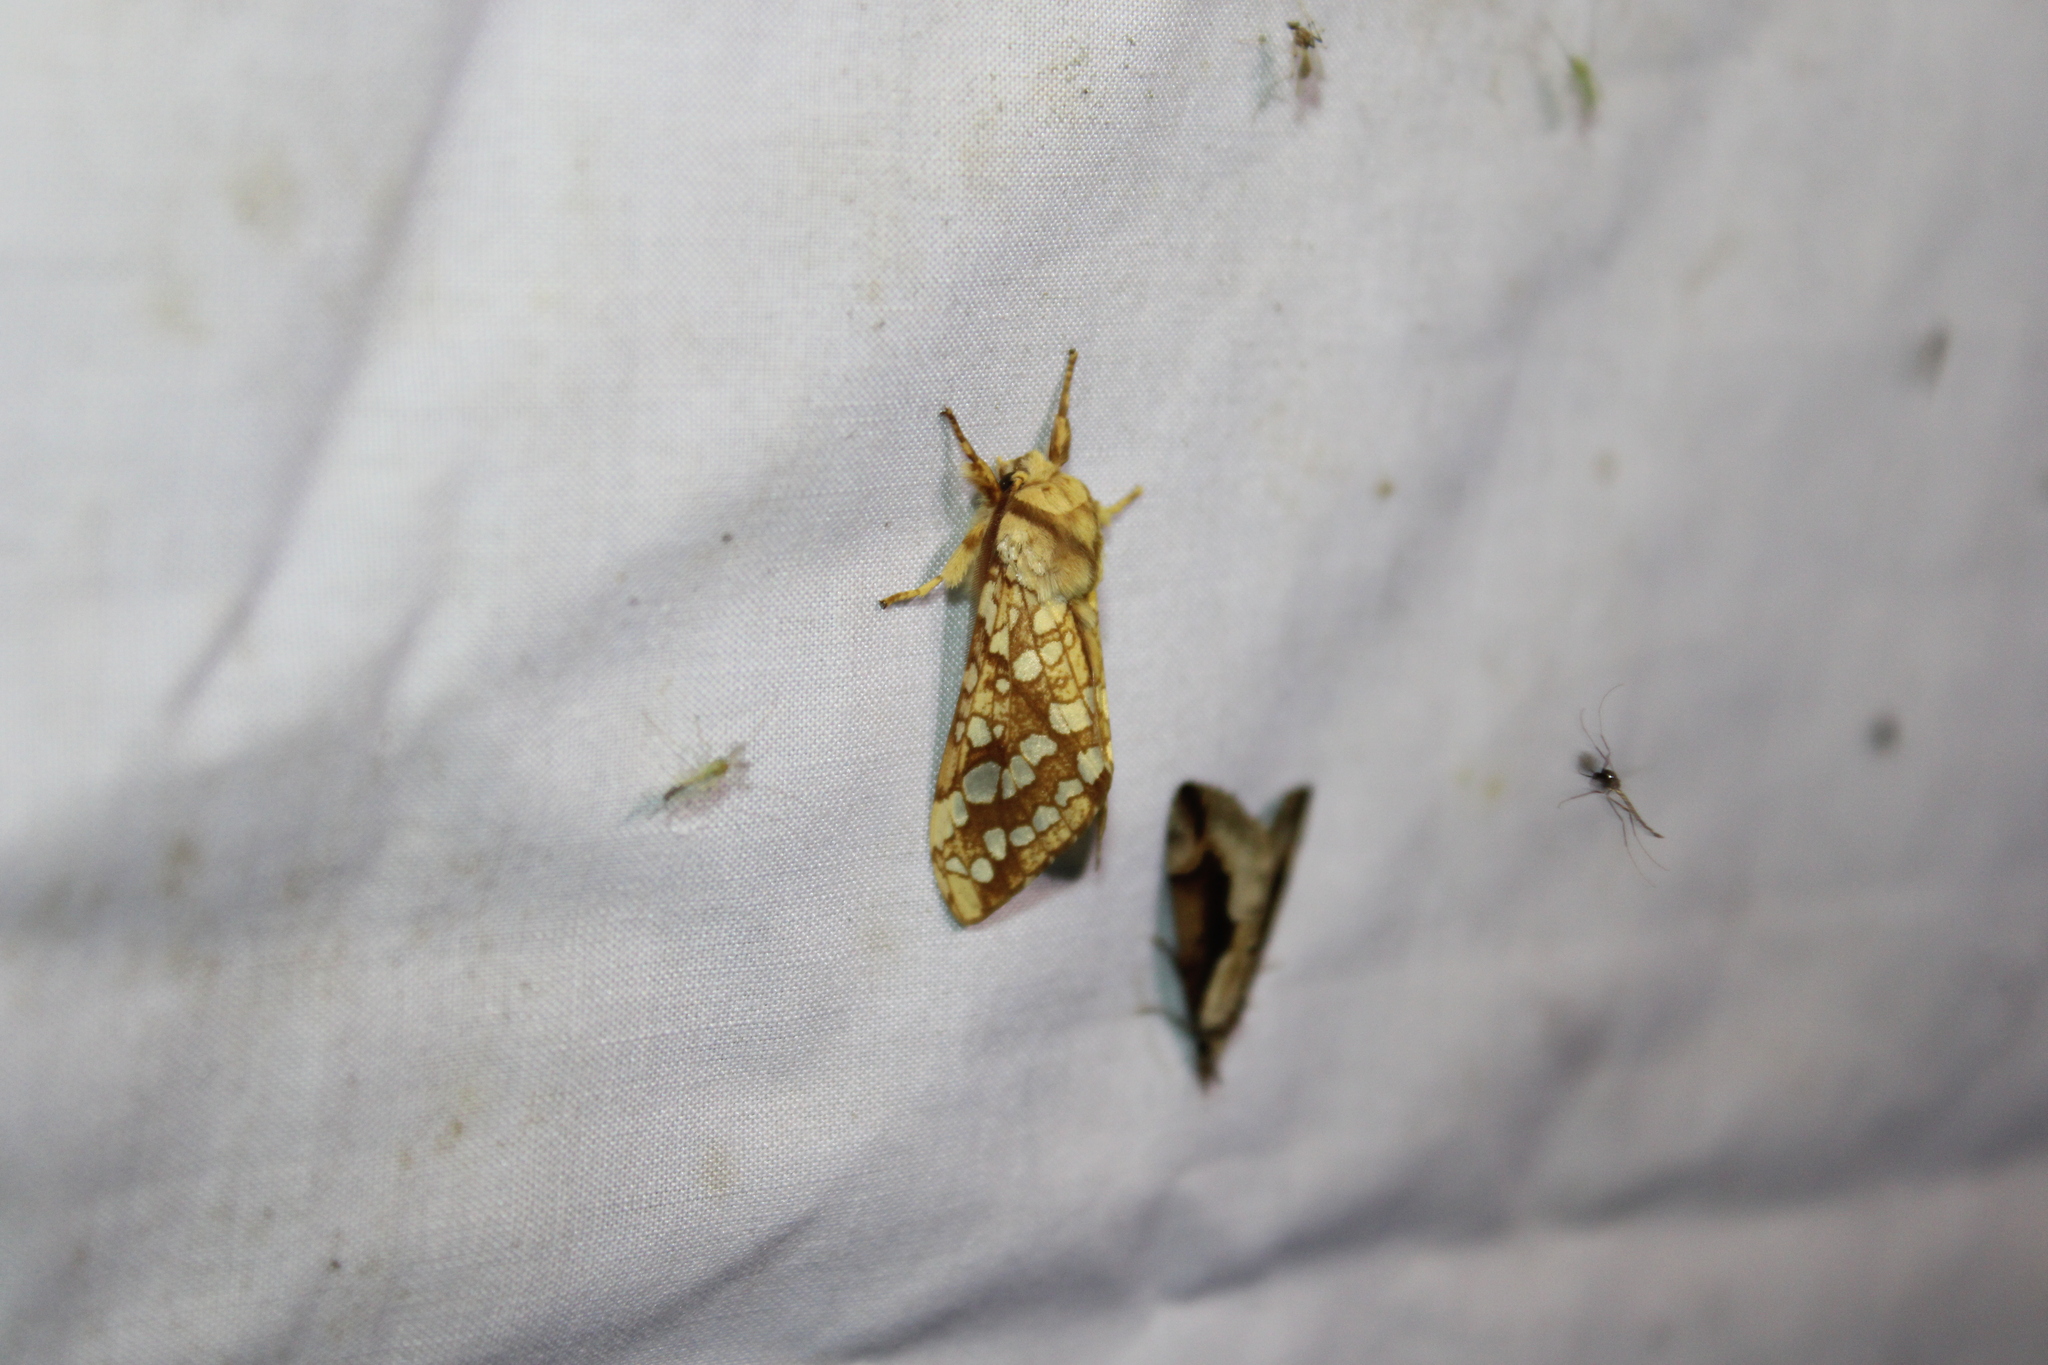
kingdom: Animalia
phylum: Arthropoda
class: Insecta
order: Lepidoptera
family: Erebidae
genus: Lophocampa
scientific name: Lophocampa caryae
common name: Hickory tussock moth
